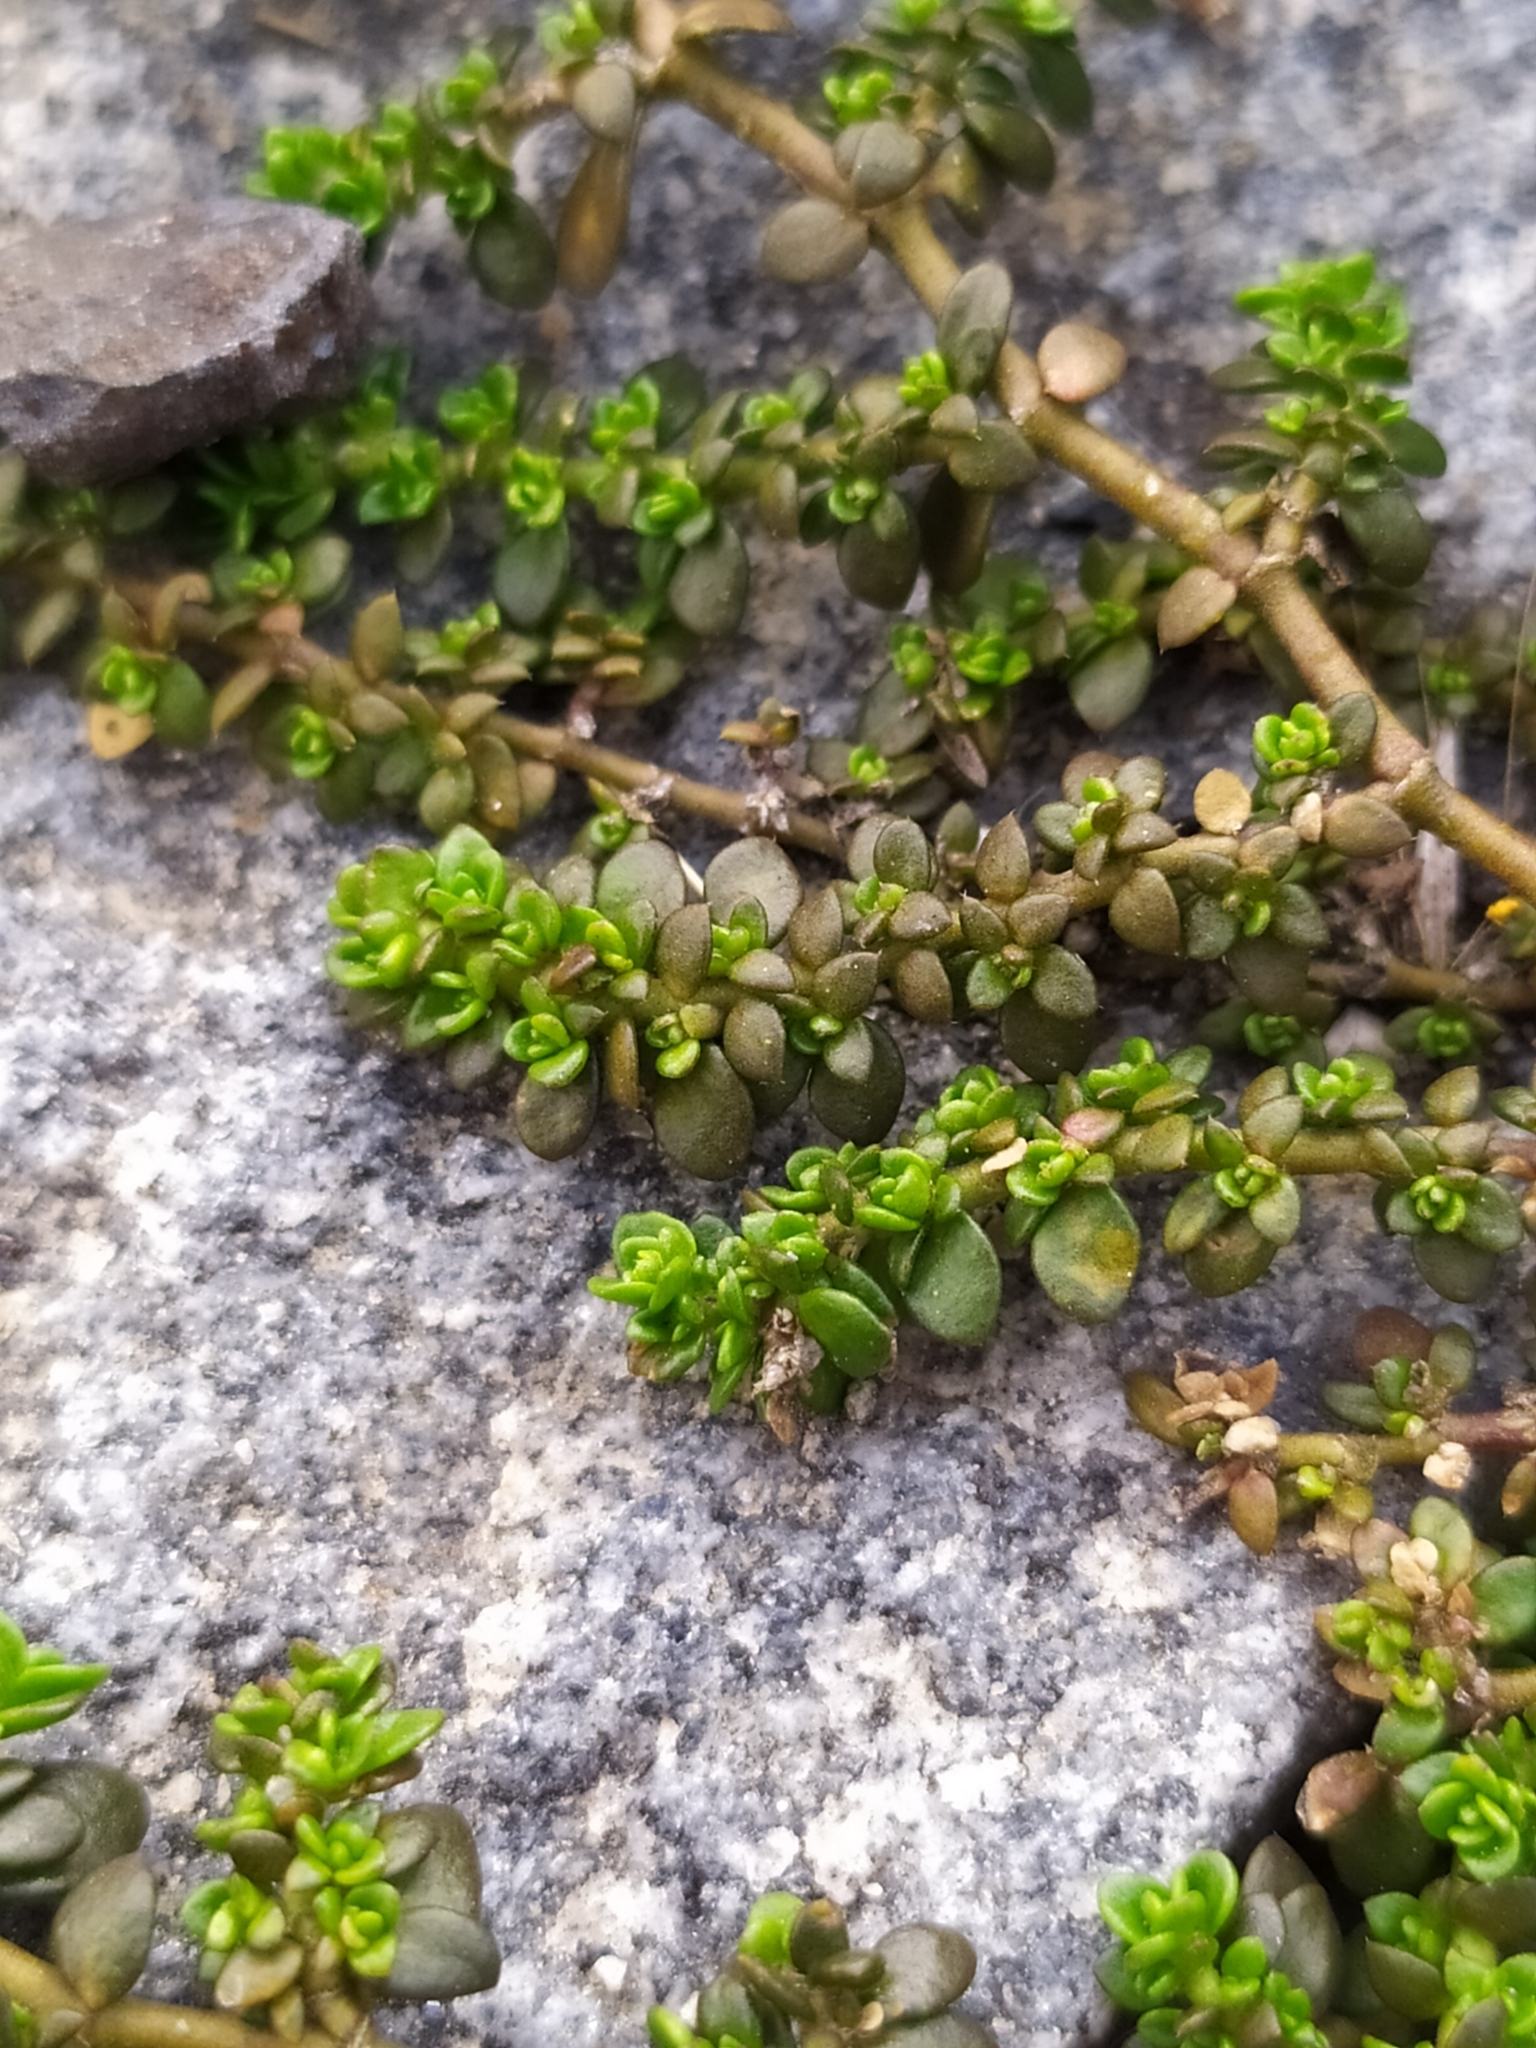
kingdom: Plantae
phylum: Tracheophyta
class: Magnoliopsida
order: Caryophyllales
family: Caryophyllaceae
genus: Herniaria
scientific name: Herniaria glabra
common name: Smooth rupturewort
